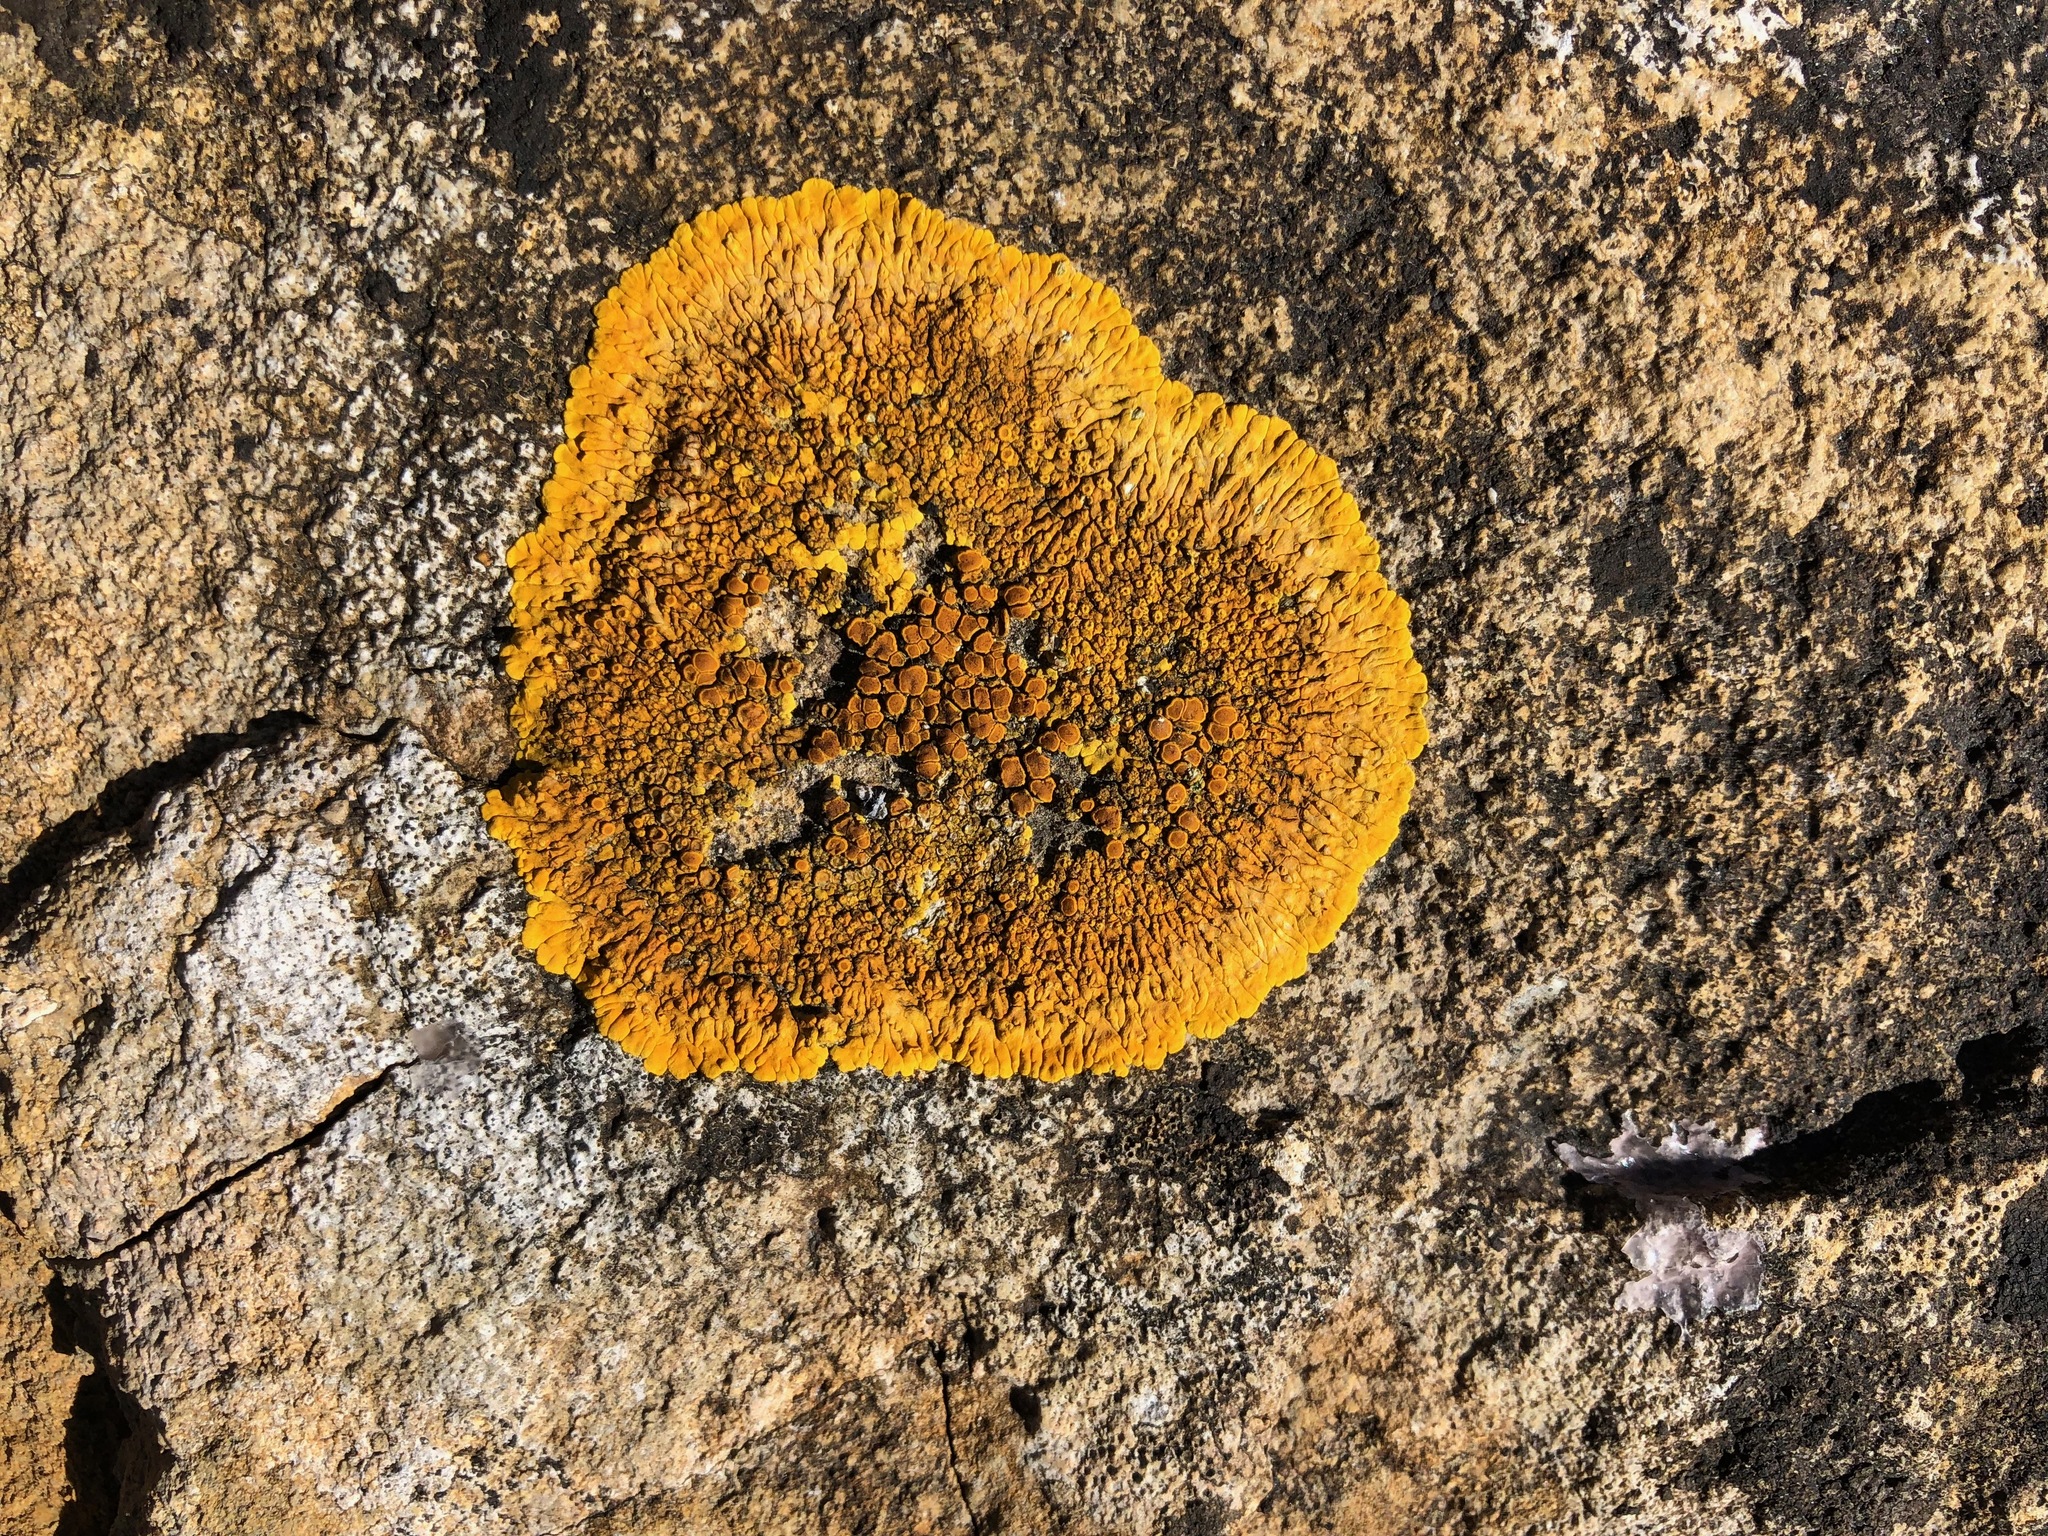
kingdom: Fungi
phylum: Ascomycota
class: Lecanoromycetes
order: Teloschistales
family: Teloschistaceae
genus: Variospora
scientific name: Variospora flavescens
